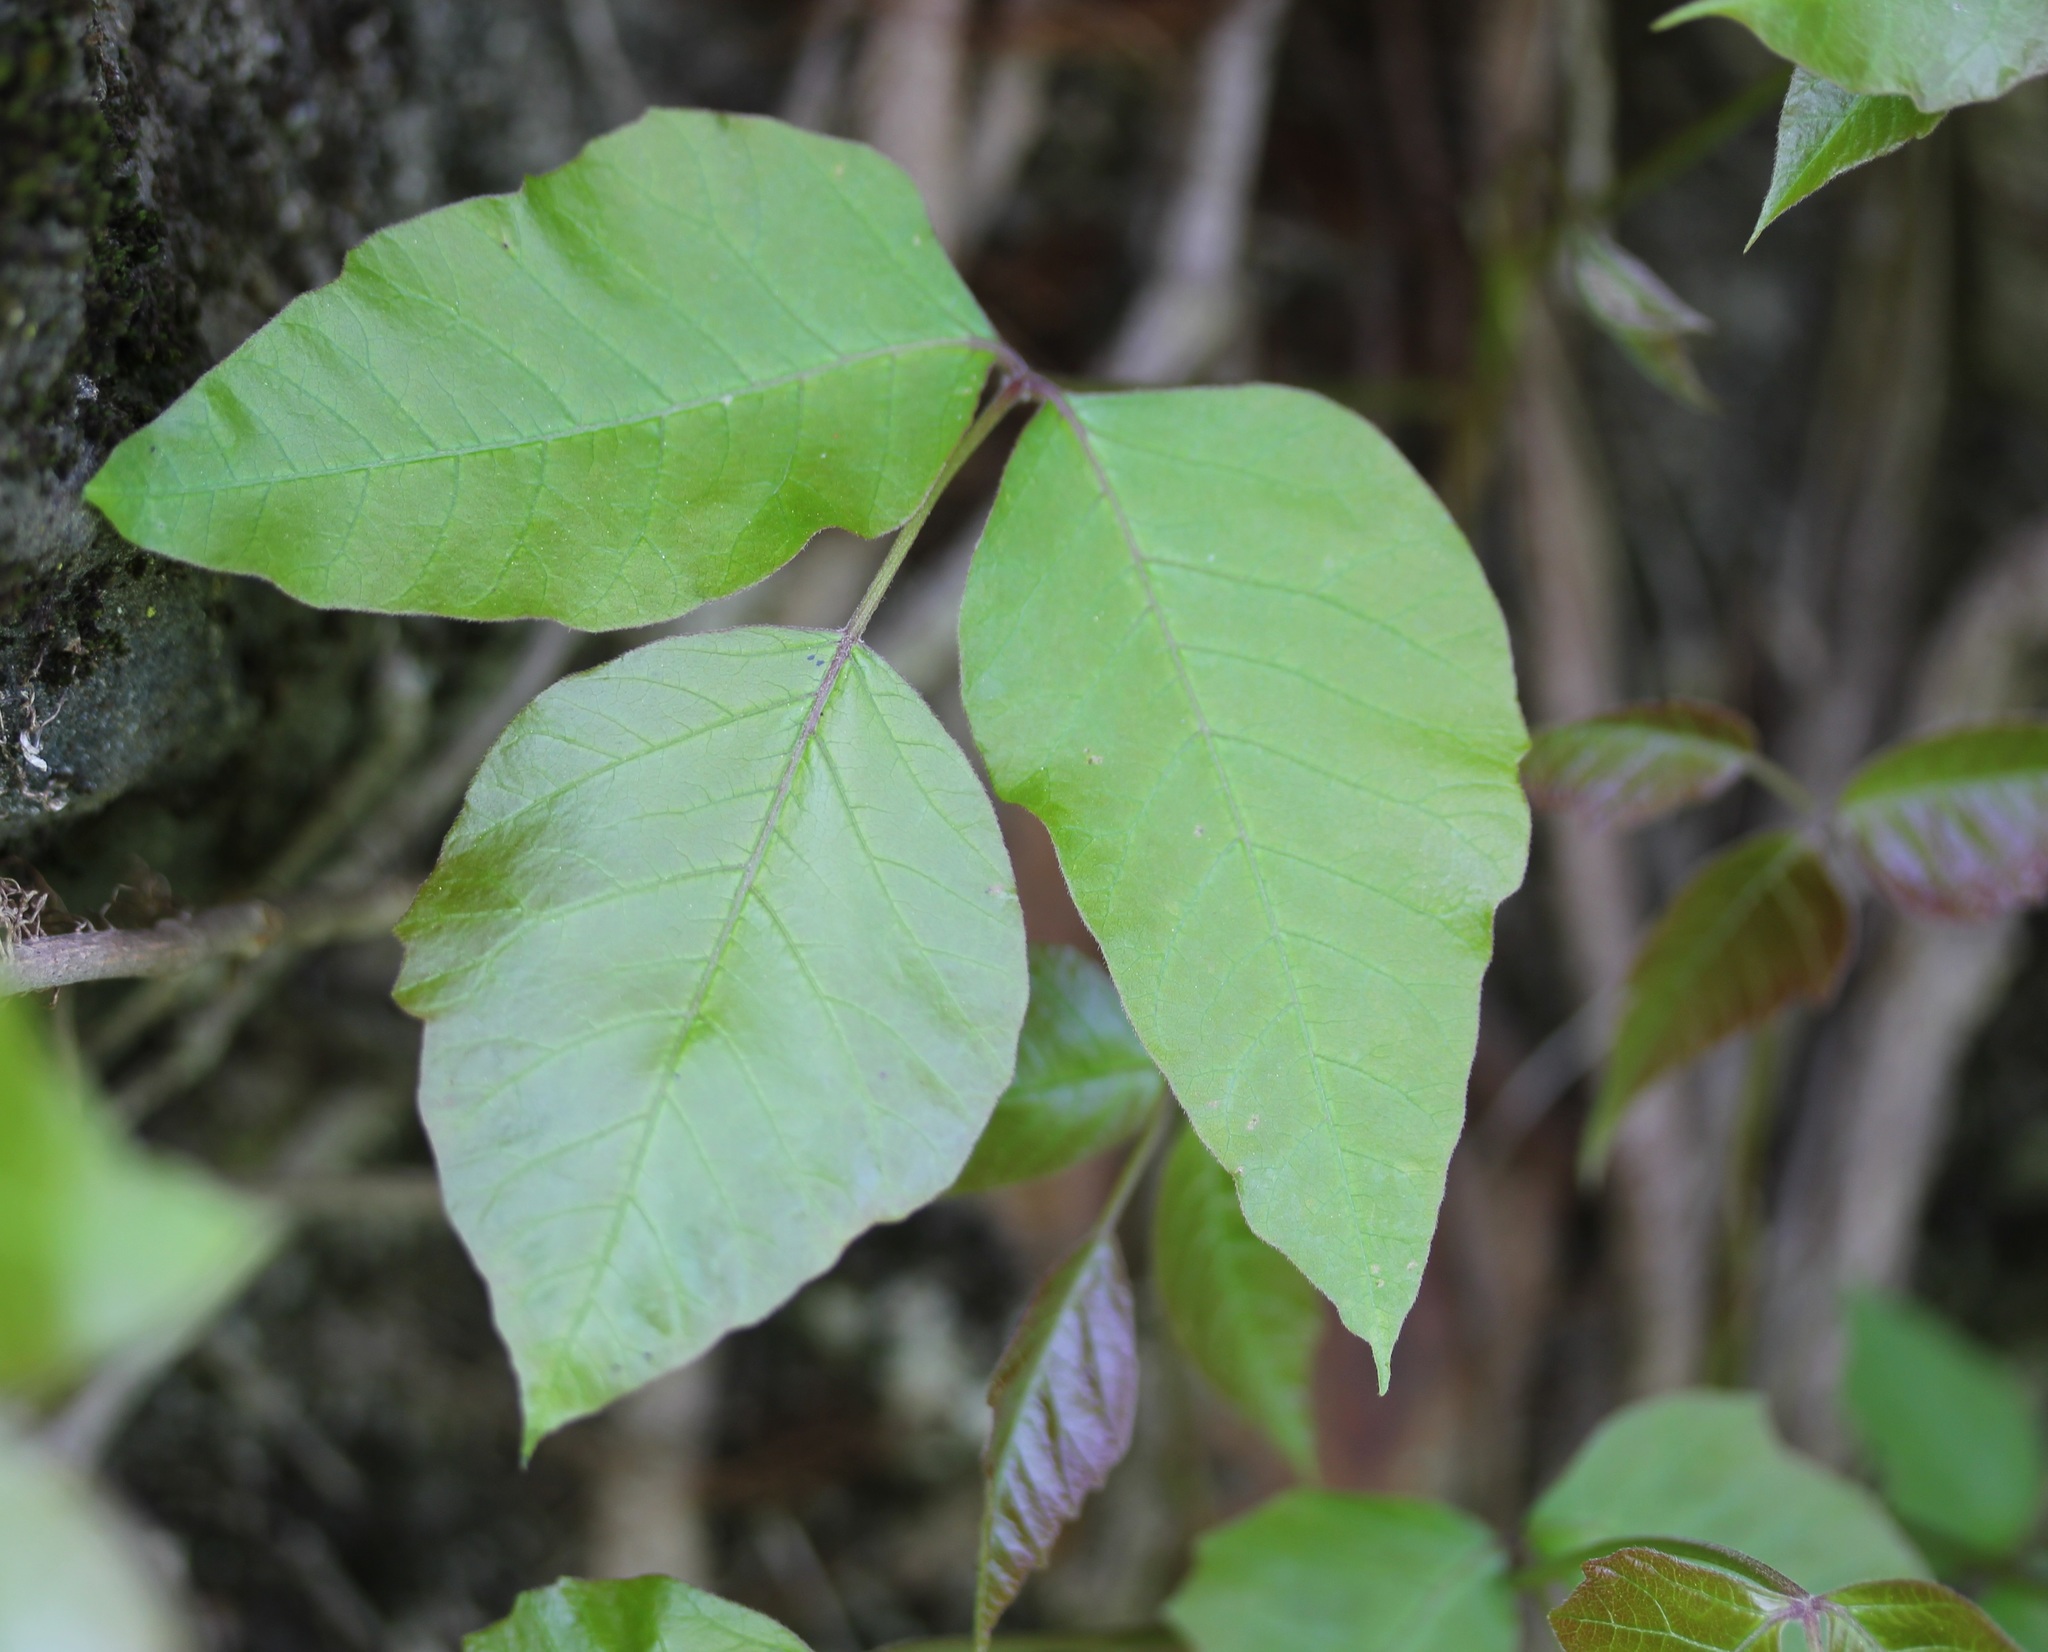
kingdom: Plantae
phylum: Tracheophyta
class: Magnoliopsida
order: Sapindales
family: Anacardiaceae
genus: Toxicodendron
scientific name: Toxicodendron radicans
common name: Poison ivy
